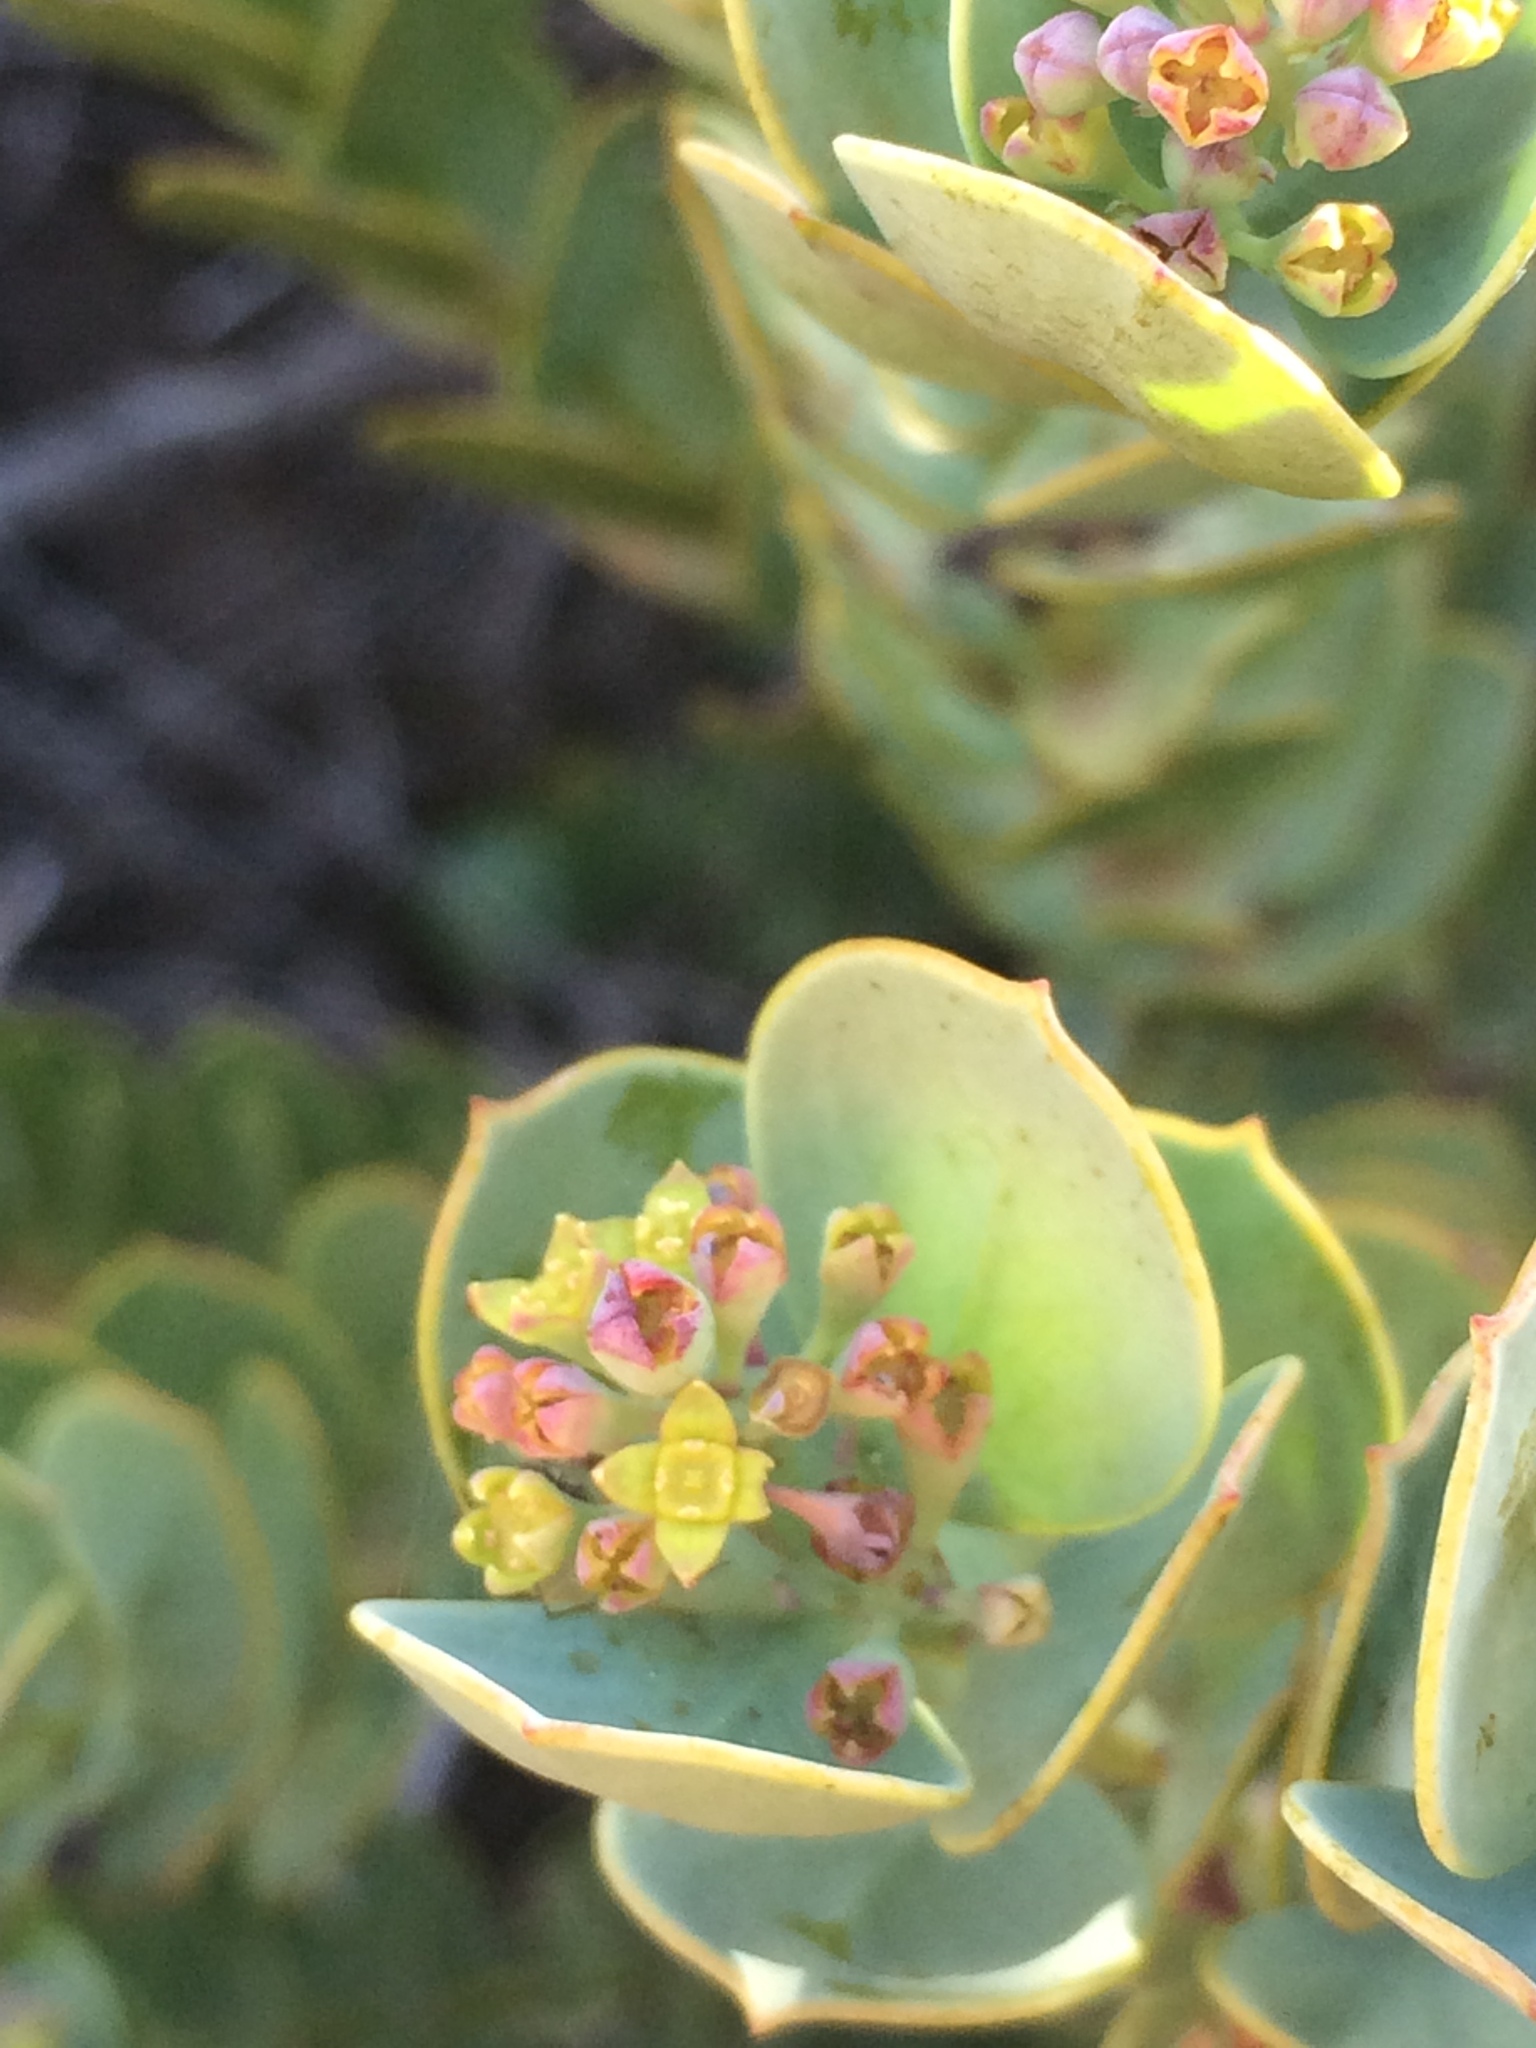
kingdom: Plantae
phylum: Tracheophyta
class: Magnoliopsida
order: Santalales
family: Santalaceae
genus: Osyris
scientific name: Osyris compressa
